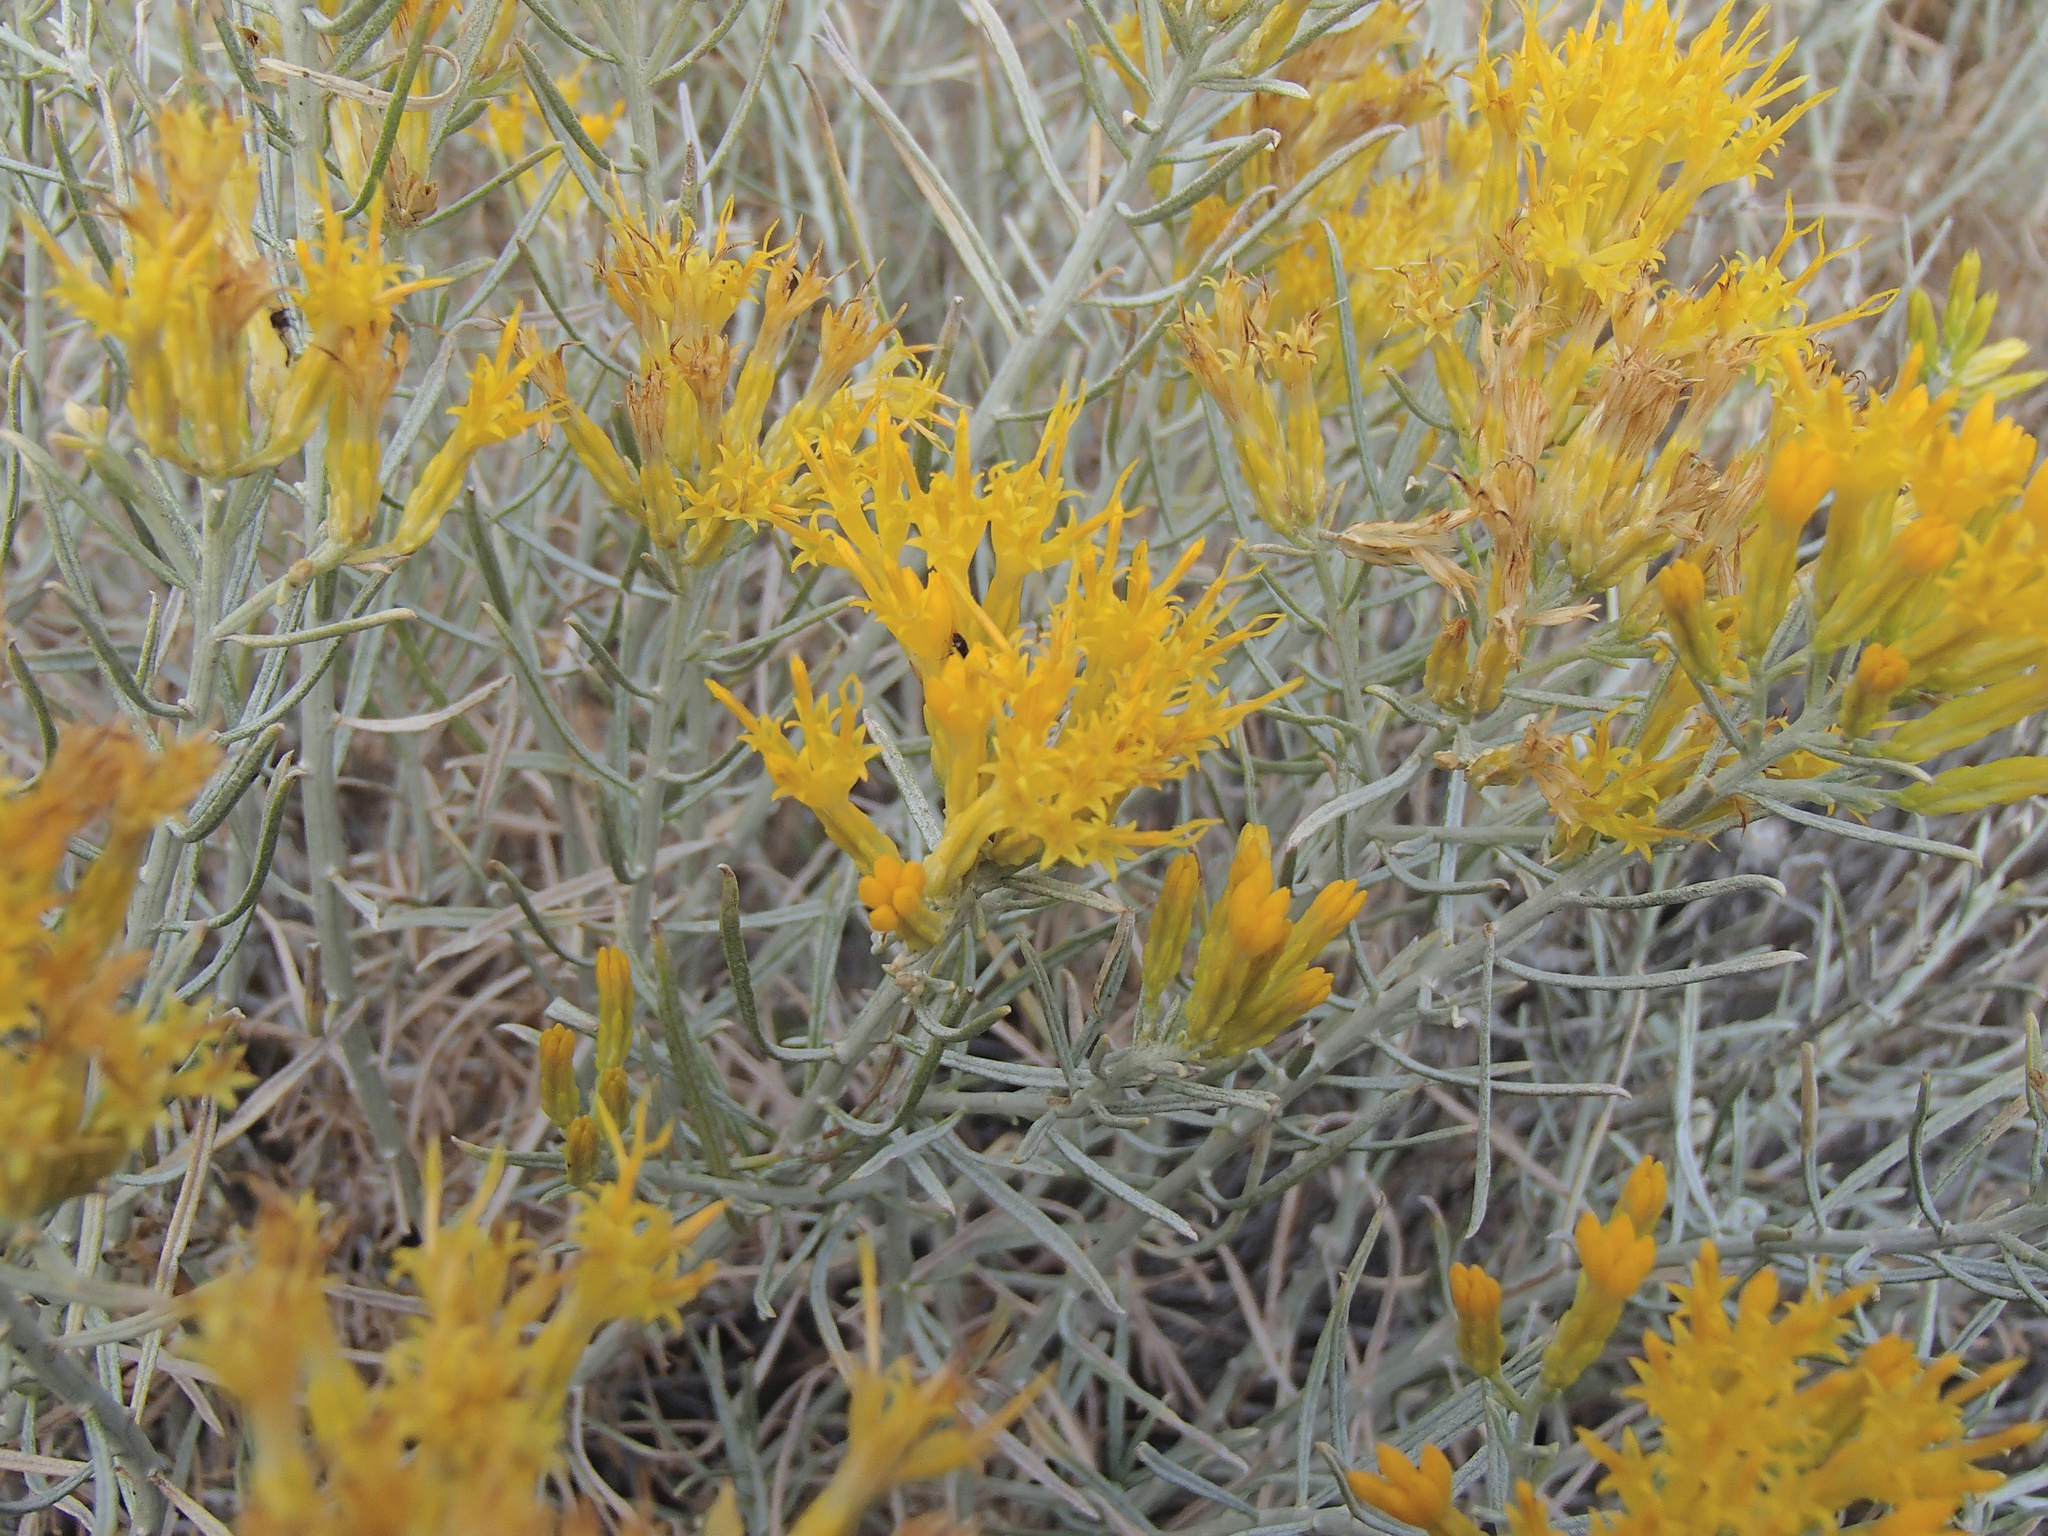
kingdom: Plantae
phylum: Tracheophyta
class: Magnoliopsida
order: Asterales
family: Asteraceae
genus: Ericameria
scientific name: Ericameria nauseosa
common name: Rubber rabbitbrush
